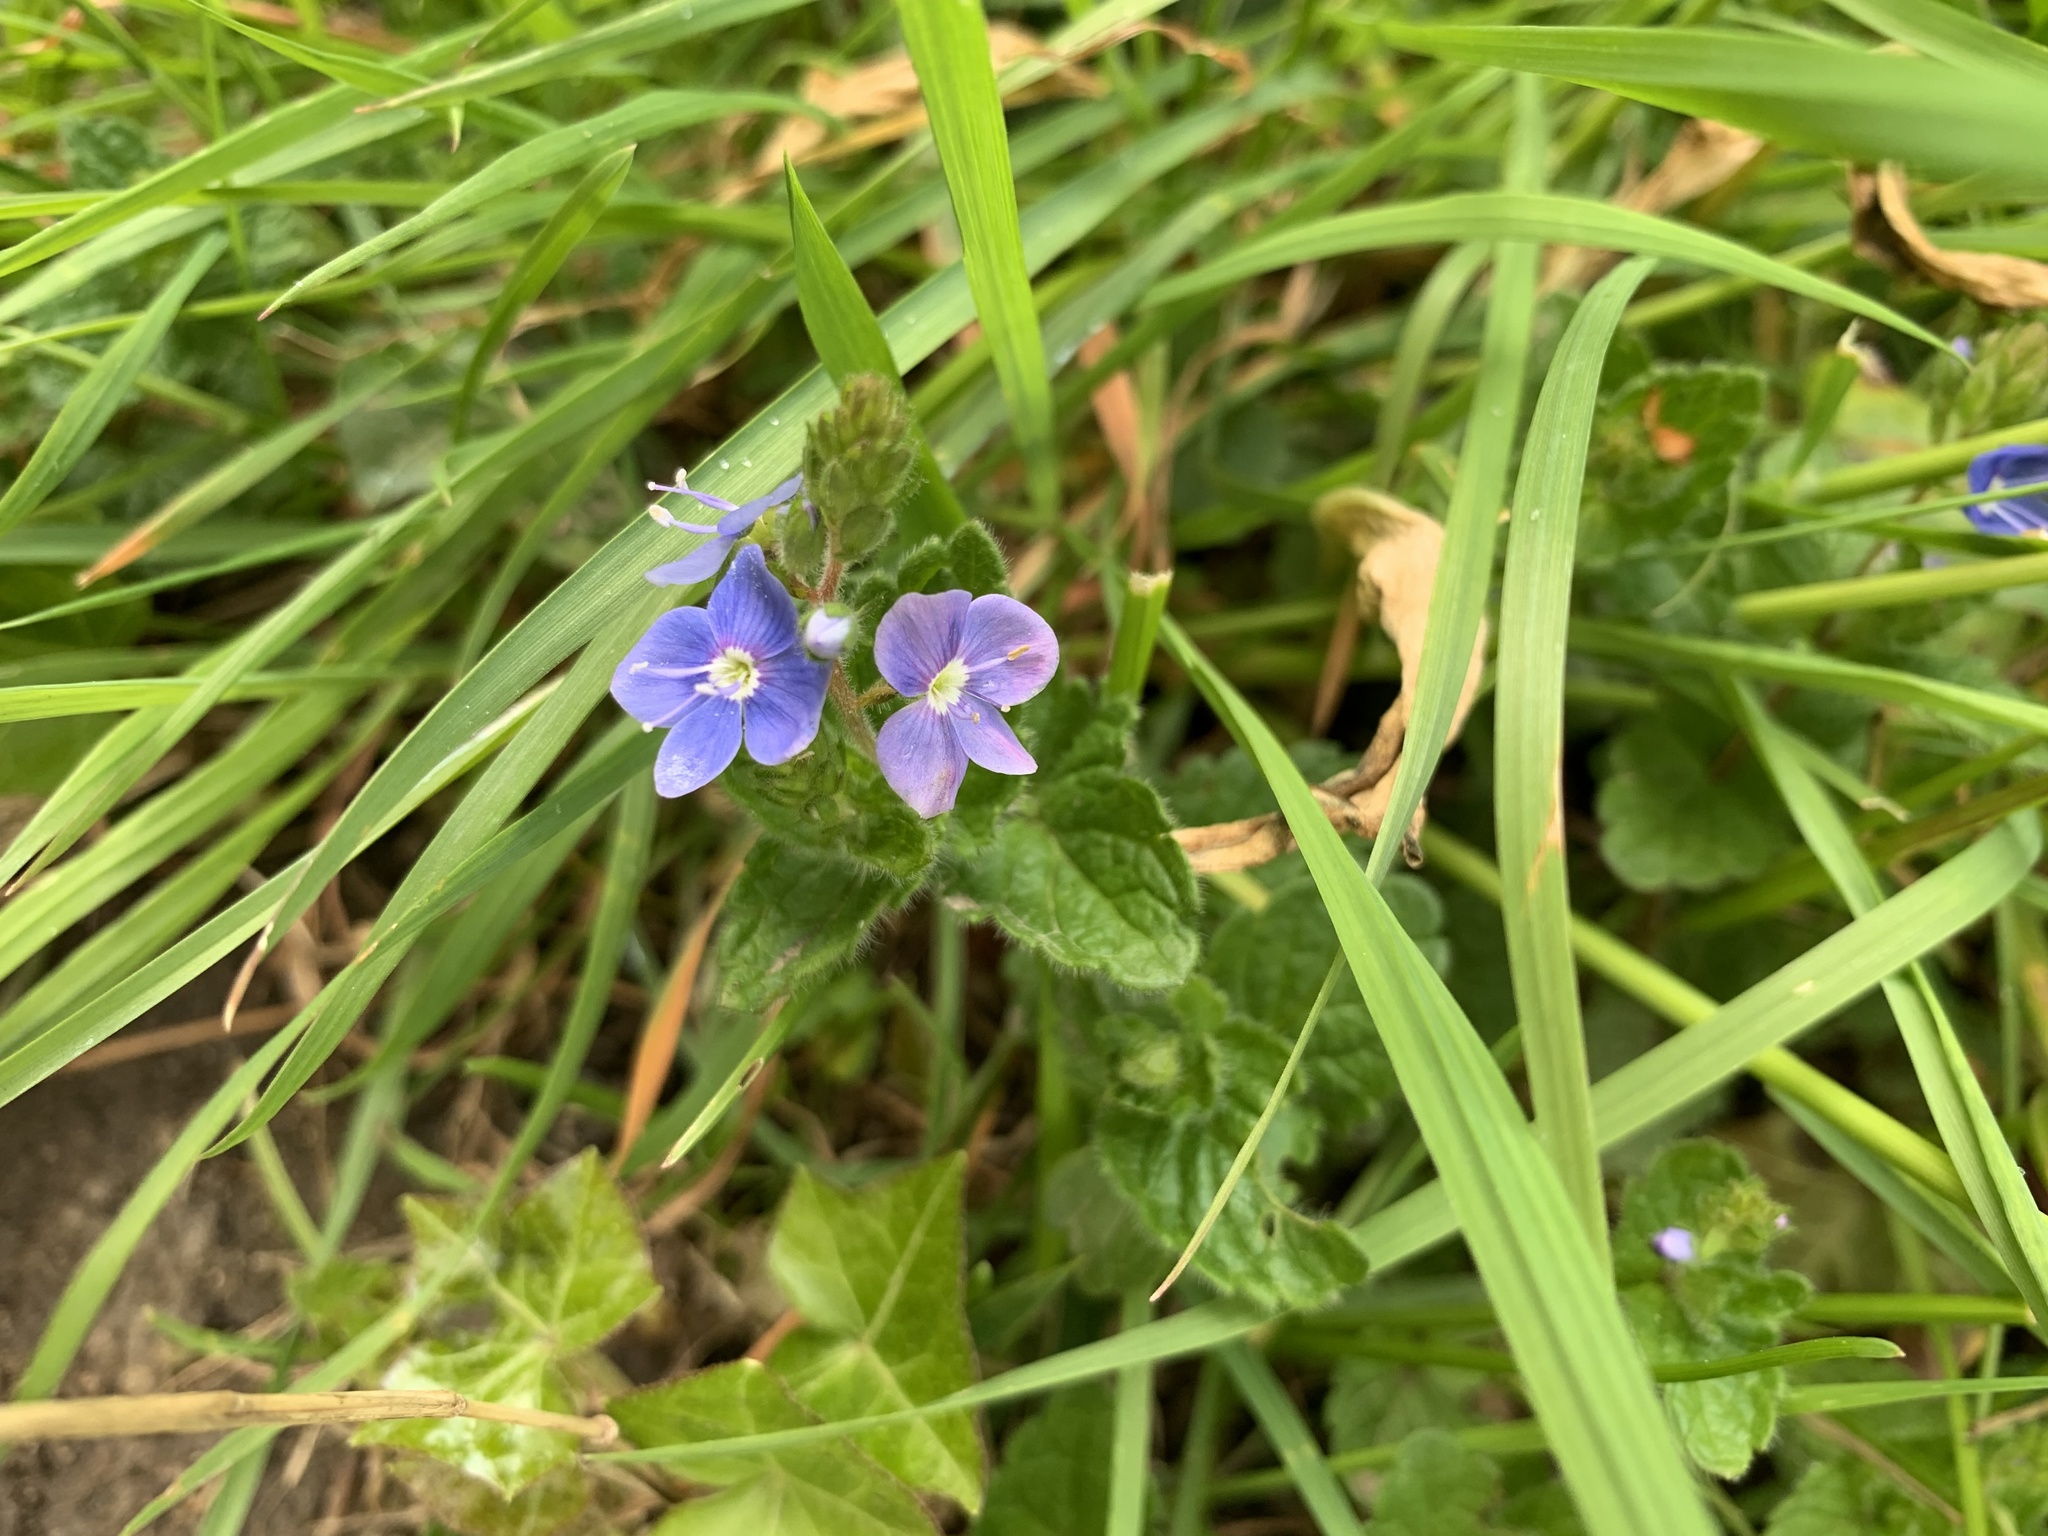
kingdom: Plantae
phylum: Tracheophyta
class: Magnoliopsida
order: Lamiales
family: Plantaginaceae
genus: Veronica
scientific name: Veronica chamaedrys
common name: Germander speedwell
